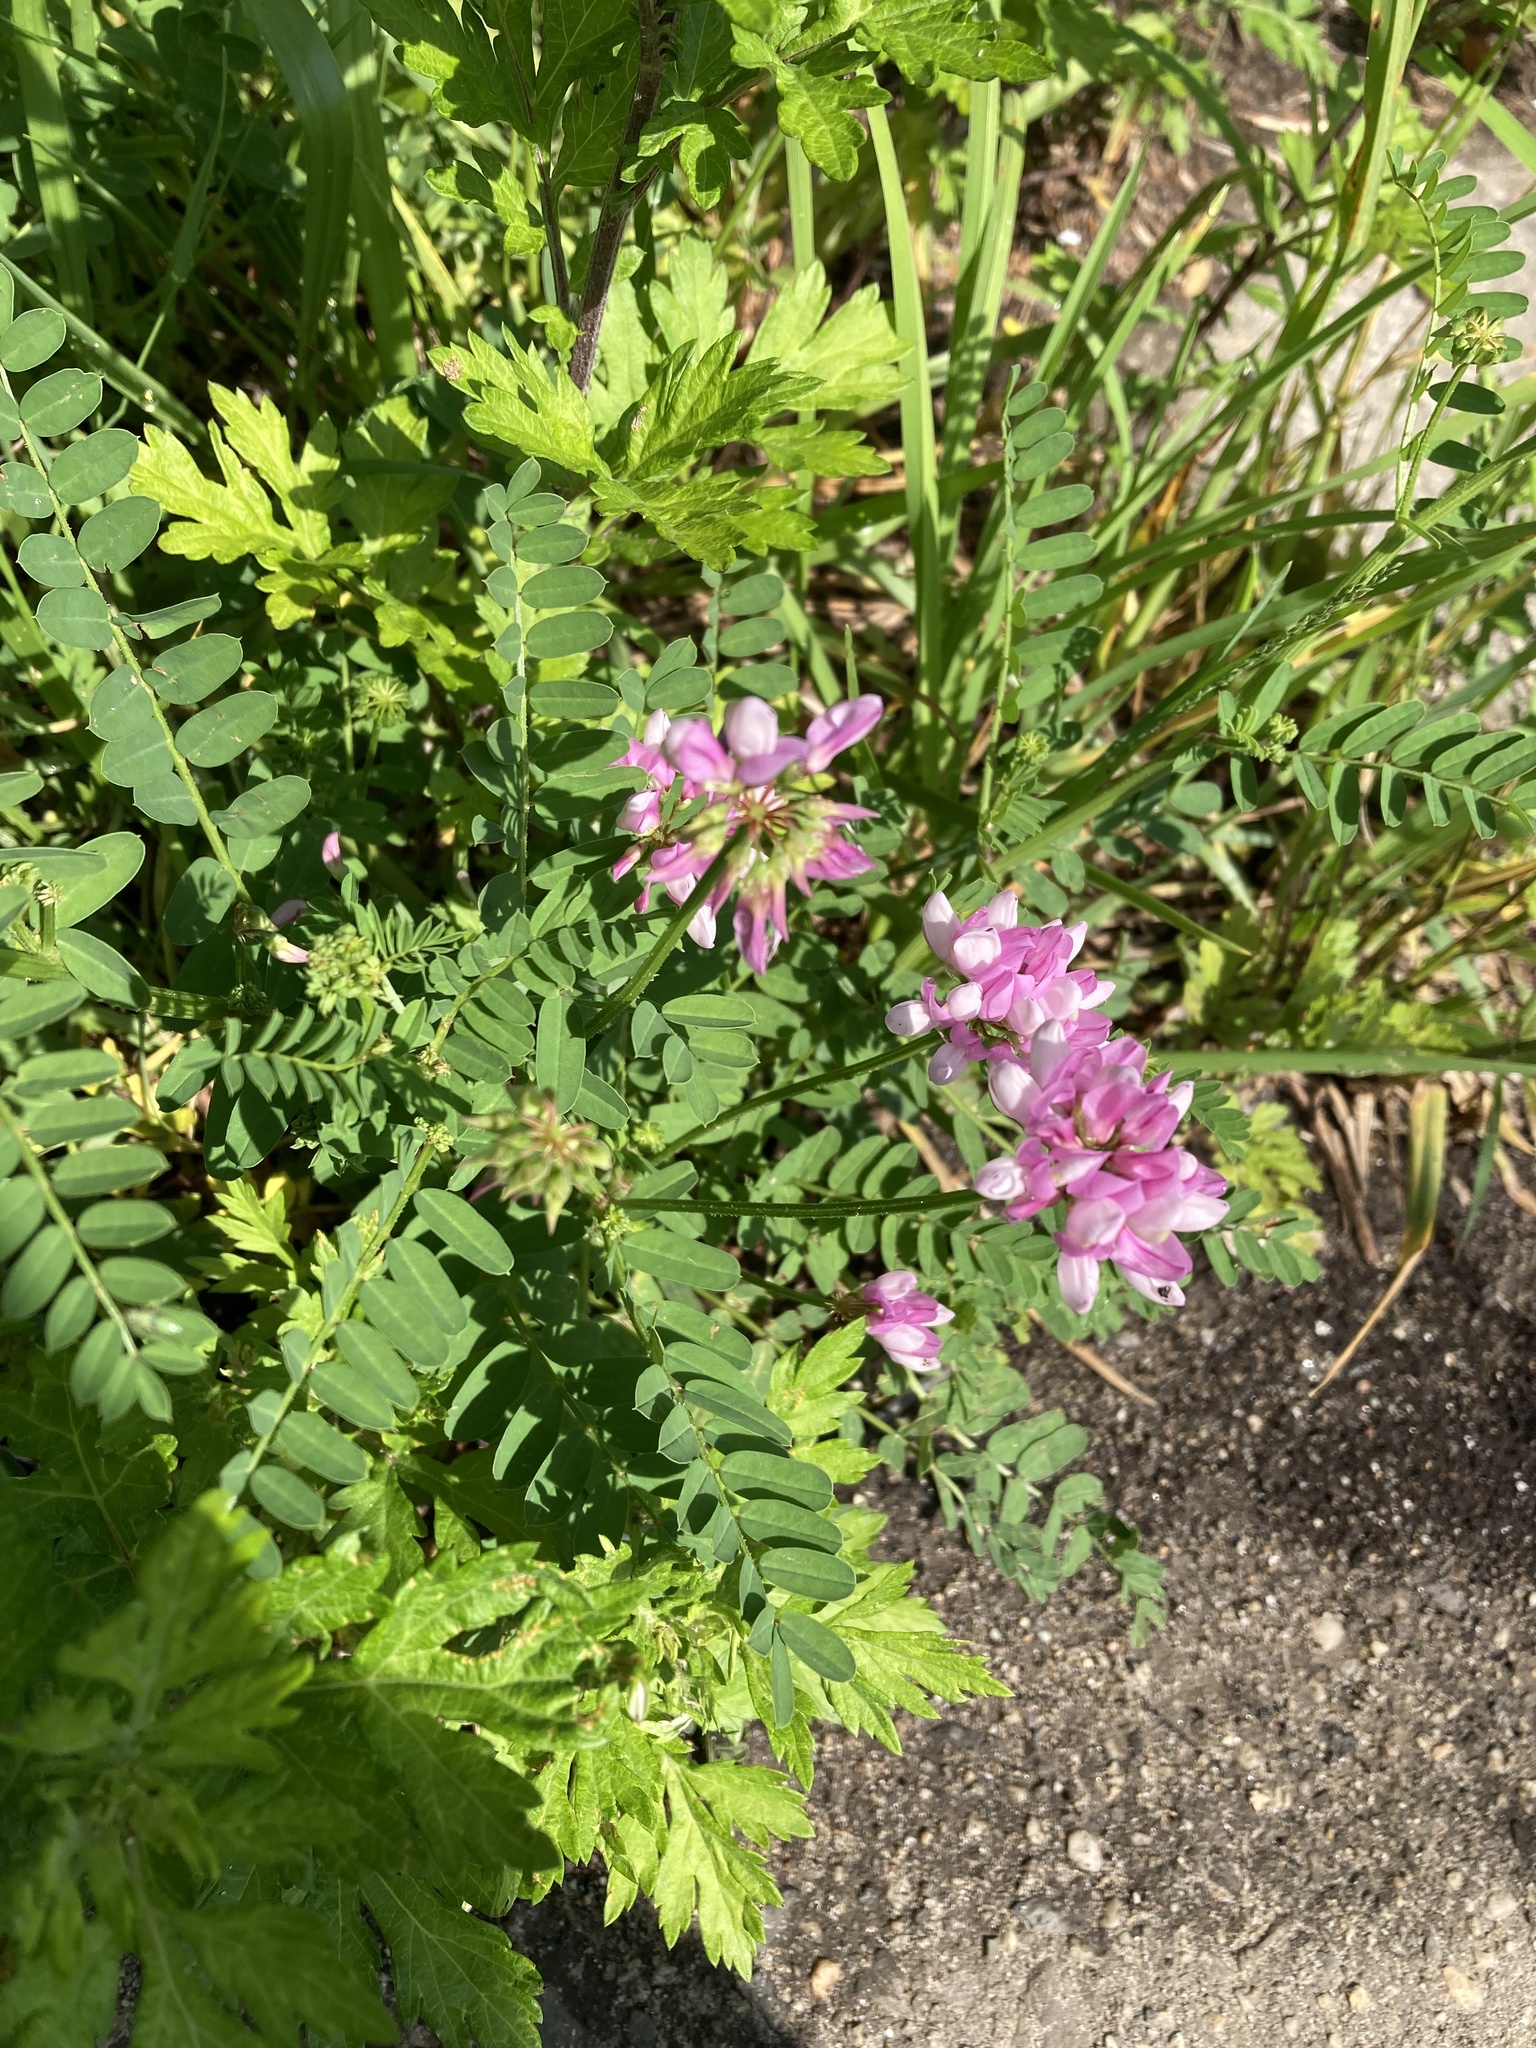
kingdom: Plantae
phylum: Tracheophyta
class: Magnoliopsida
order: Fabales
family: Fabaceae
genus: Coronilla
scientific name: Coronilla varia
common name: Crownvetch
